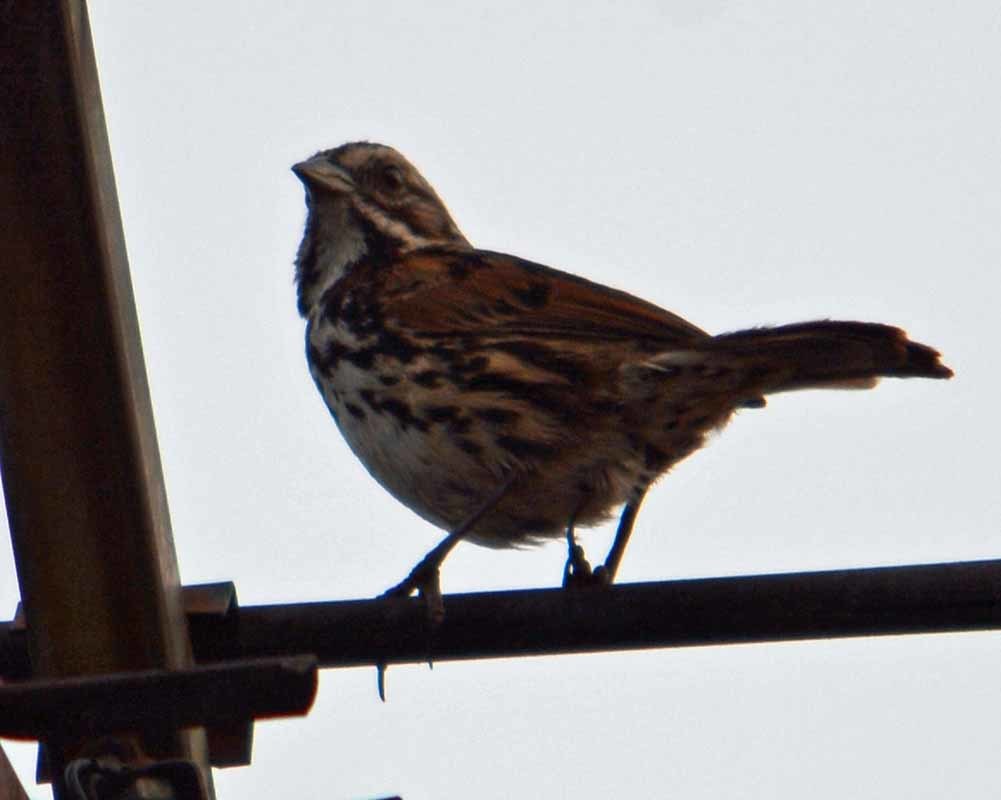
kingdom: Animalia
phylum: Chordata
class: Aves
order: Passeriformes
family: Passerellidae
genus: Melospiza
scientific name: Melospiza melodia
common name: Song sparrow
